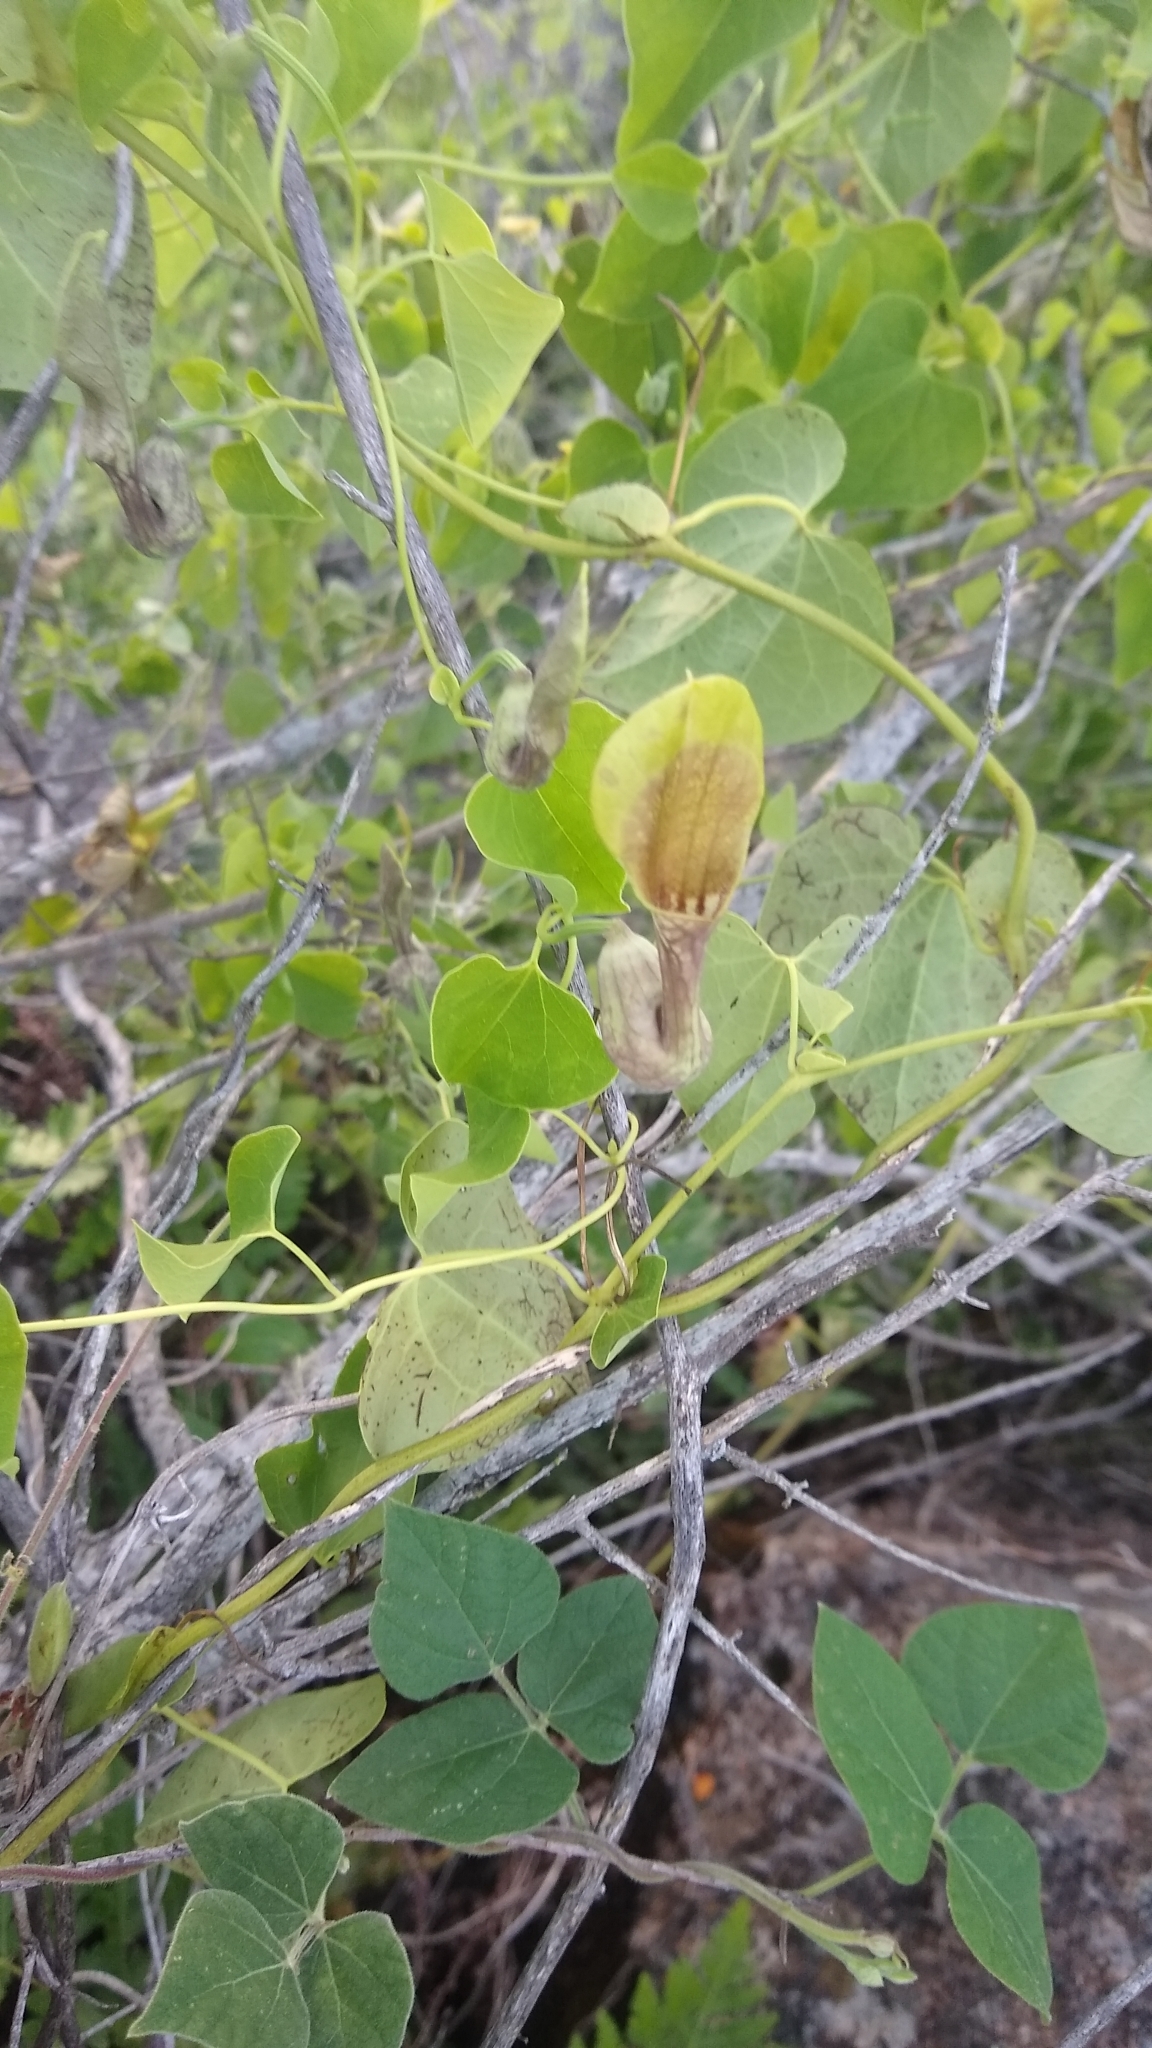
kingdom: Plantae
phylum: Tracheophyta
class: Magnoliopsida
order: Piperales
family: Aristolochiaceae
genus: Aristolochia
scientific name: Aristolochia argentina
